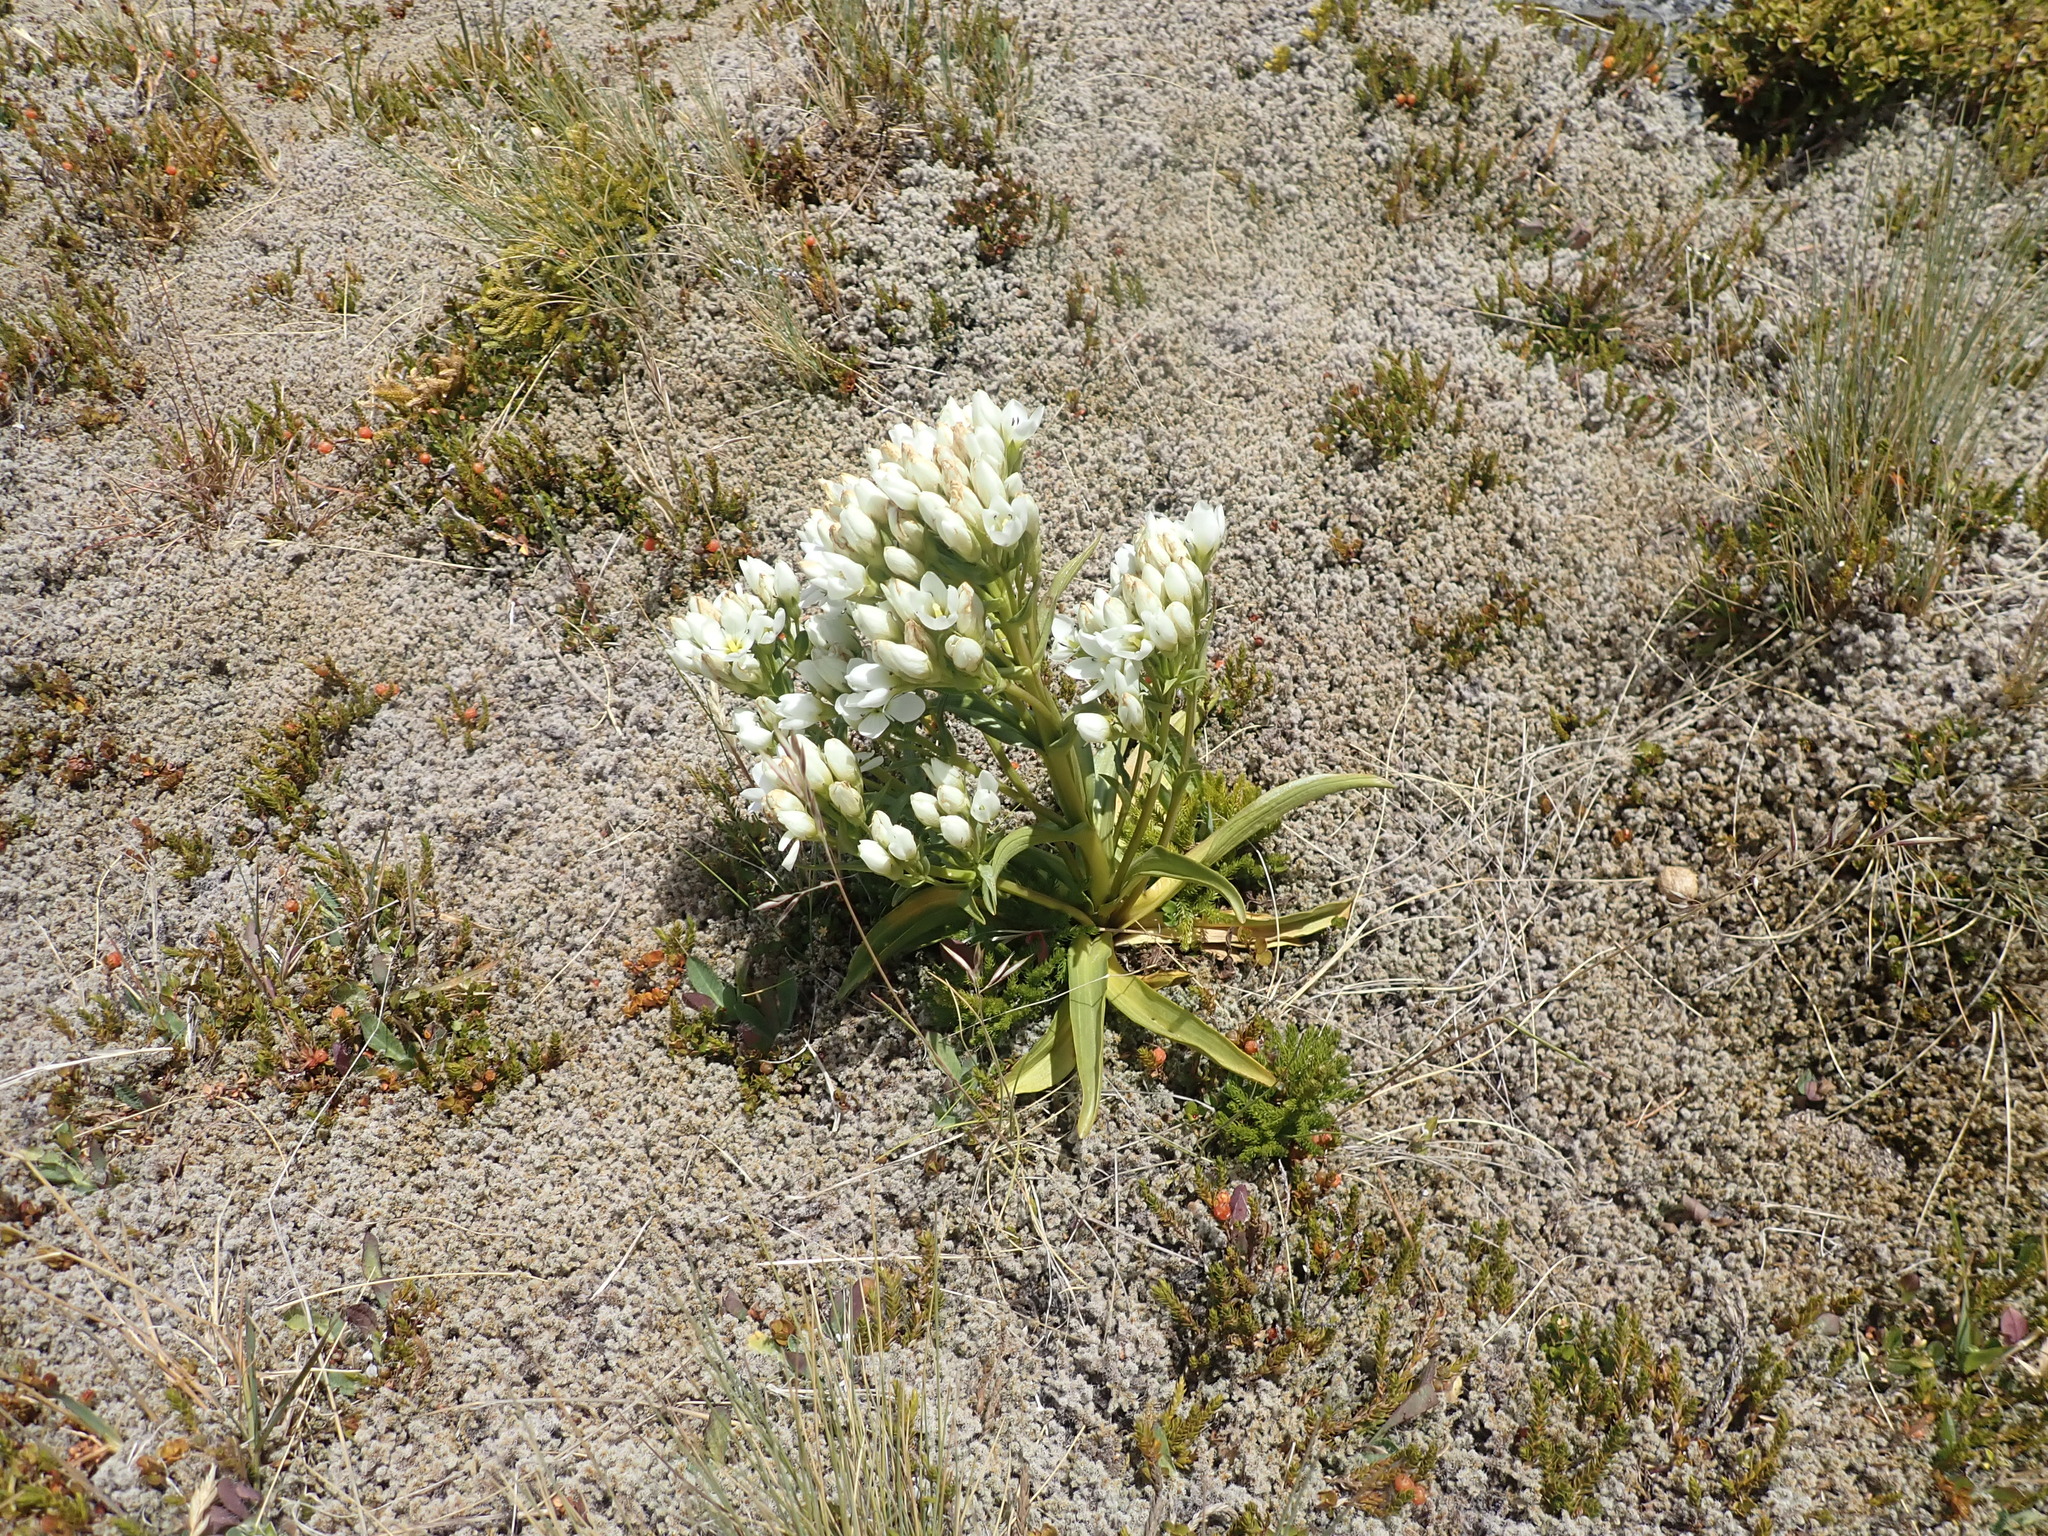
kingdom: Plantae
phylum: Tracheophyta
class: Magnoliopsida
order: Gentianales
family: Gentianaceae
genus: Gentianella
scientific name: Gentianella corymbifera
